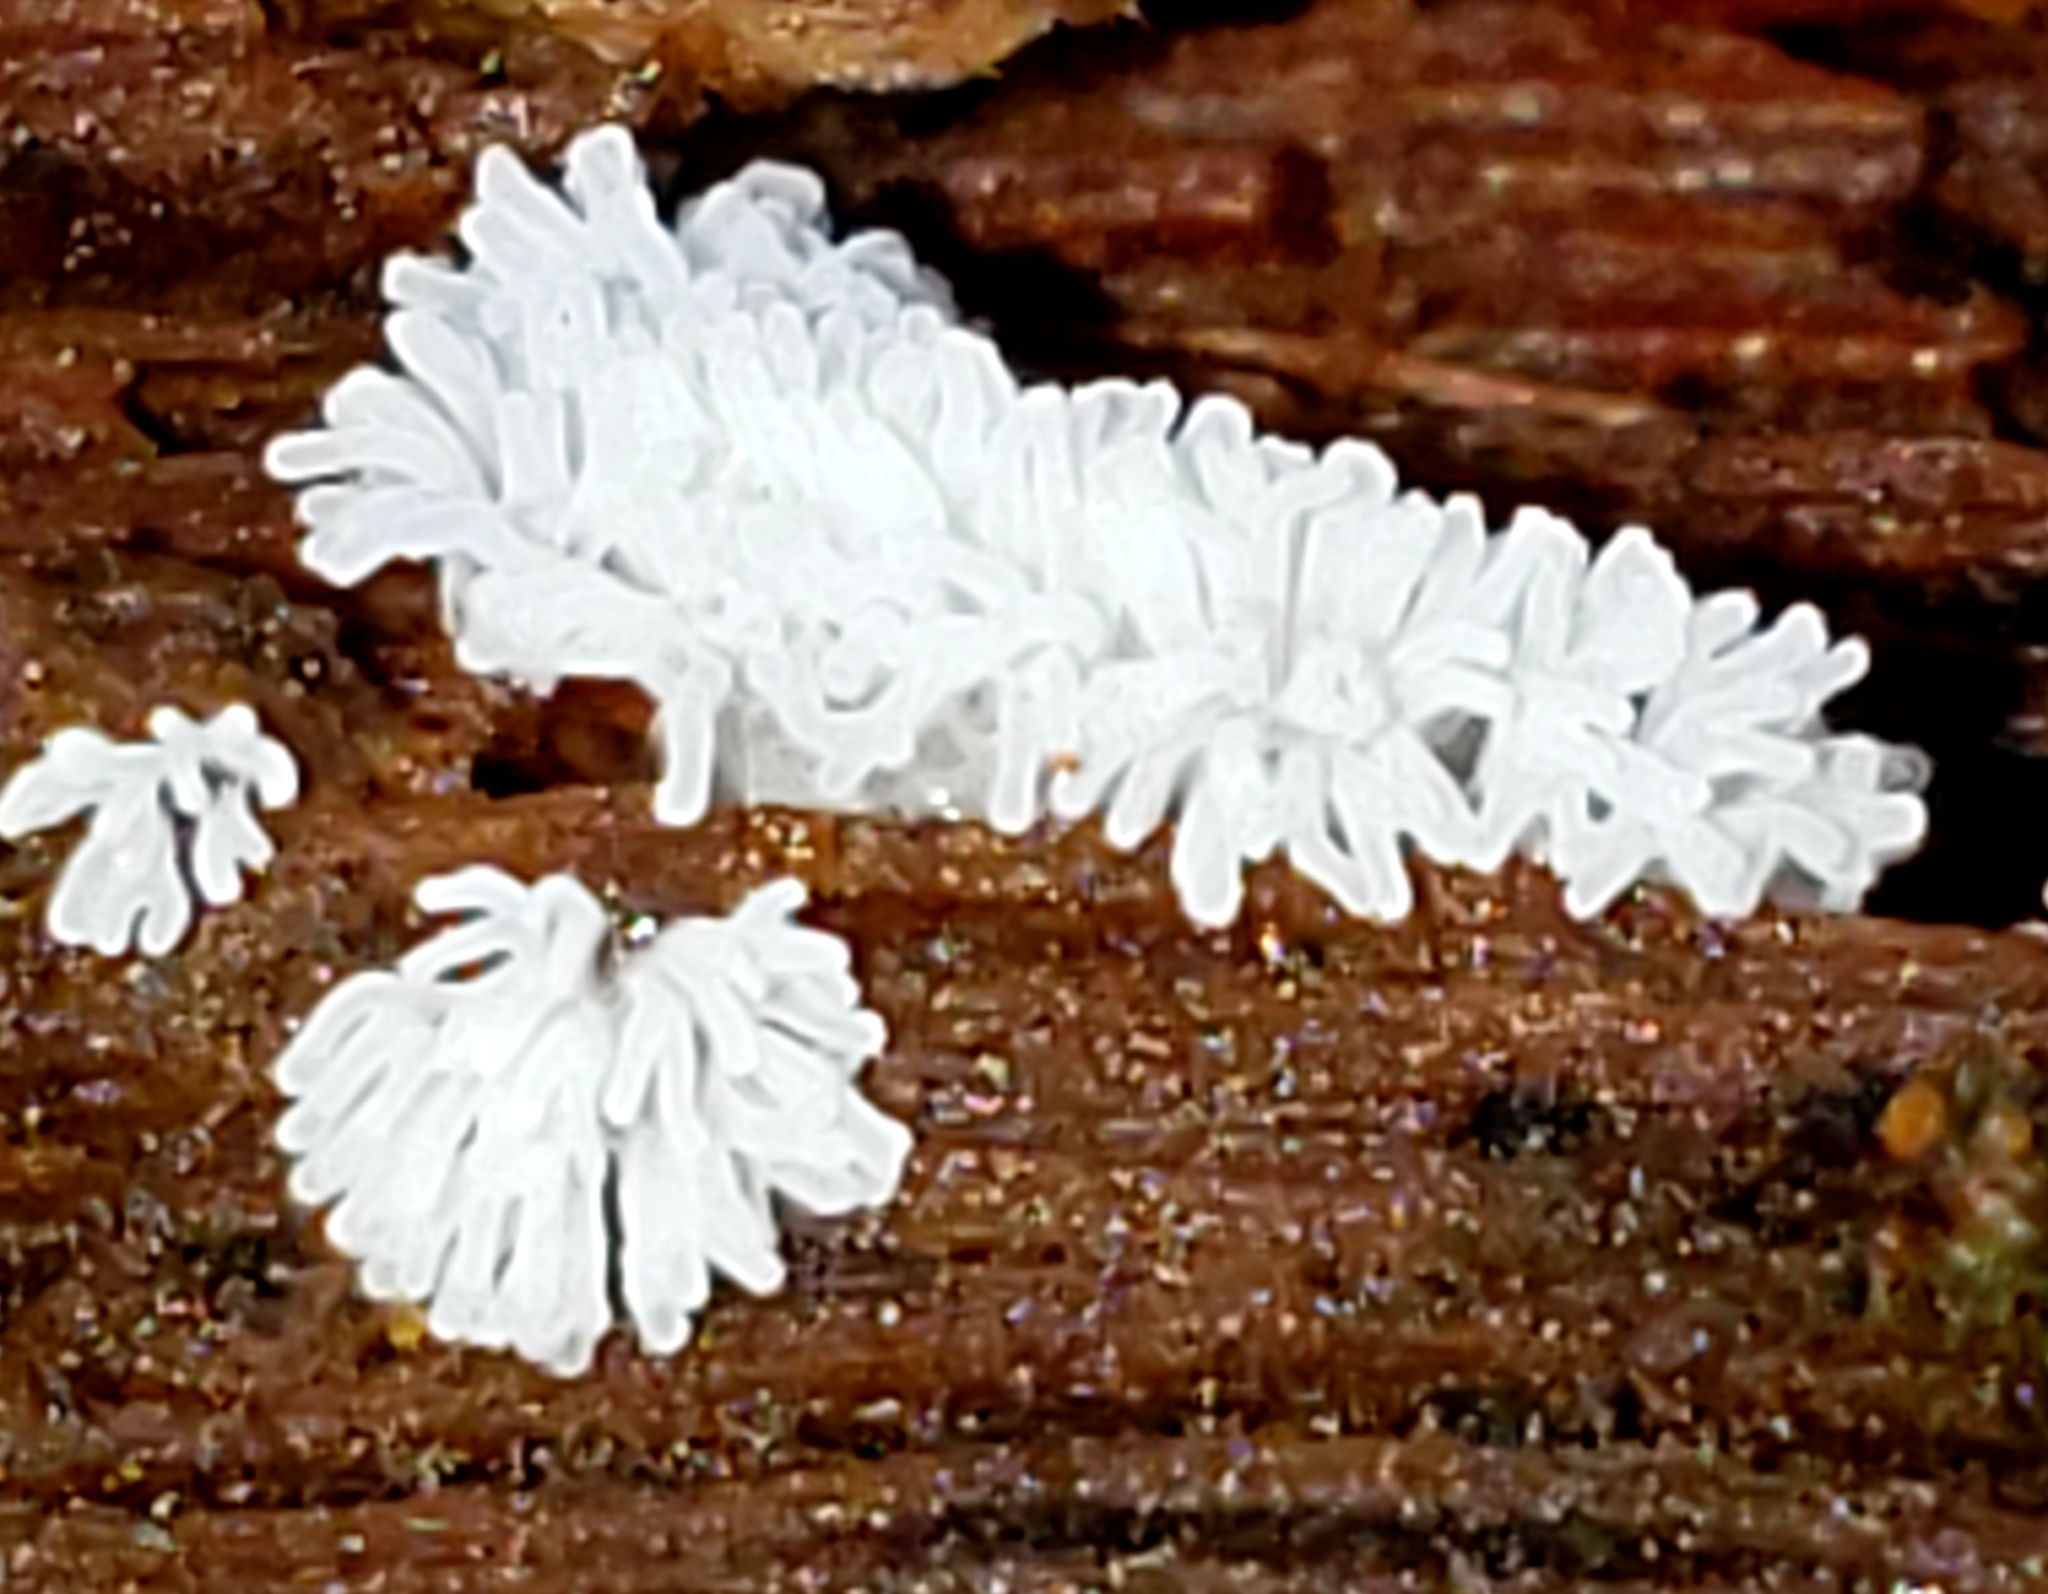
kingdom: Protozoa
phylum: Mycetozoa
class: Protosteliomycetes
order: Ceratiomyxales
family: Ceratiomyxaceae
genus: Ceratiomyxa
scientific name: Ceratiomyxa fruticulosa
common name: Honeycomb coral slime mold
